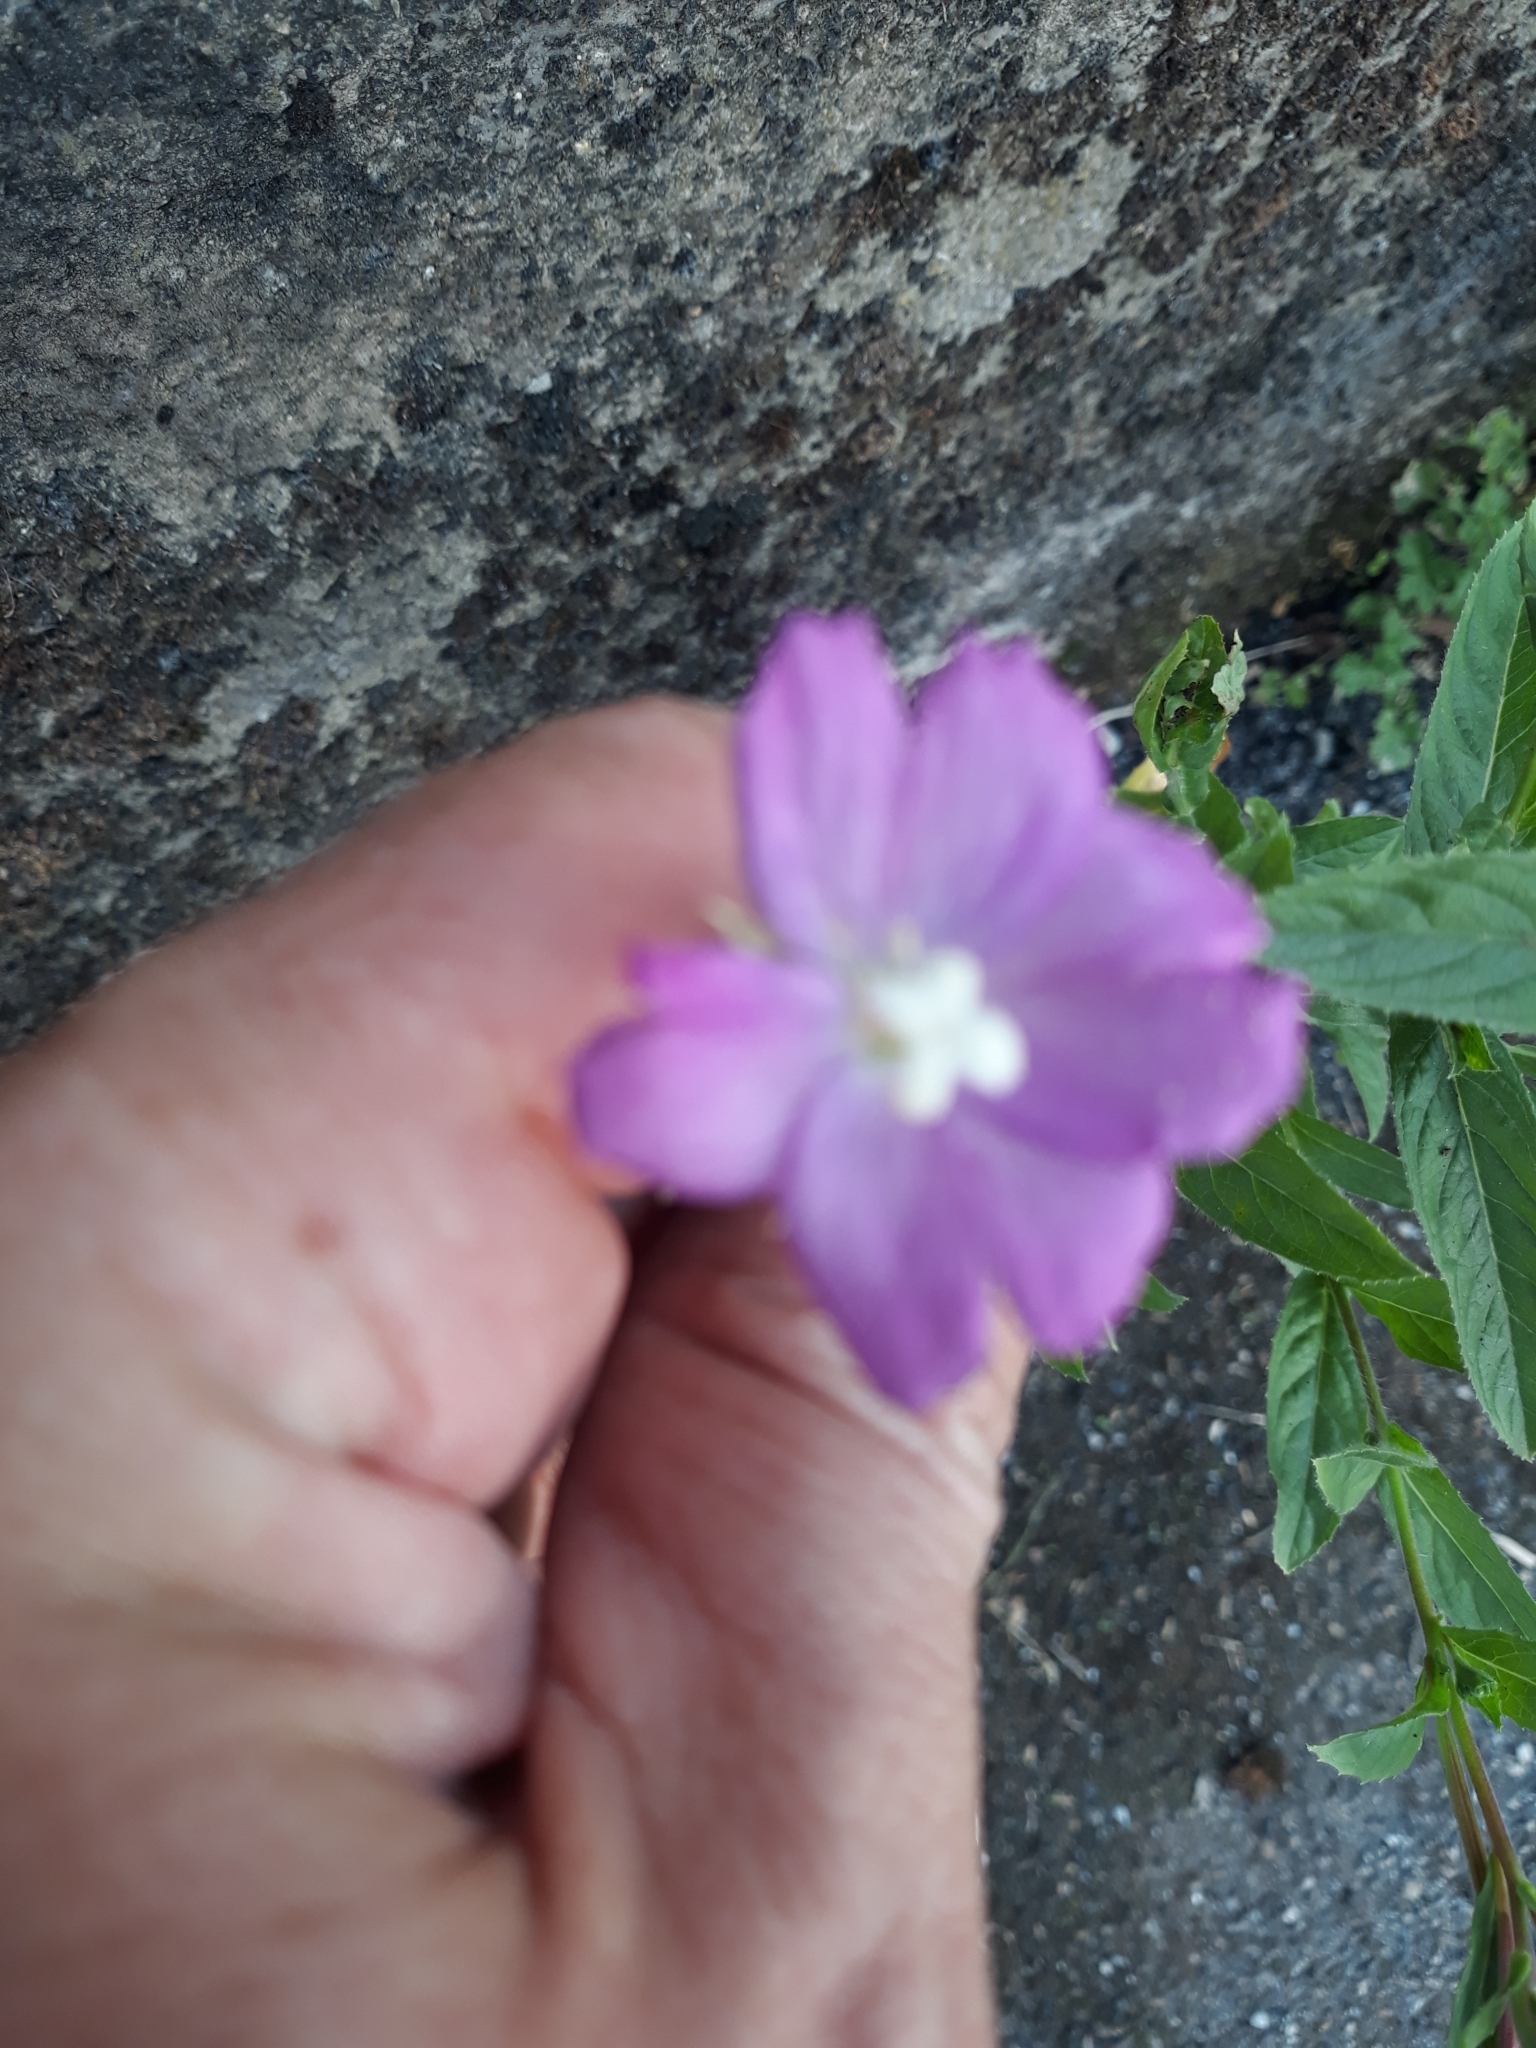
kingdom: Plantae
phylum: Tracheophyta
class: Magnoliopsida
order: Myrtales
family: Onagraceae
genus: Epilobium
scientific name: Epilobium hirsutum
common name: Great willowherb
